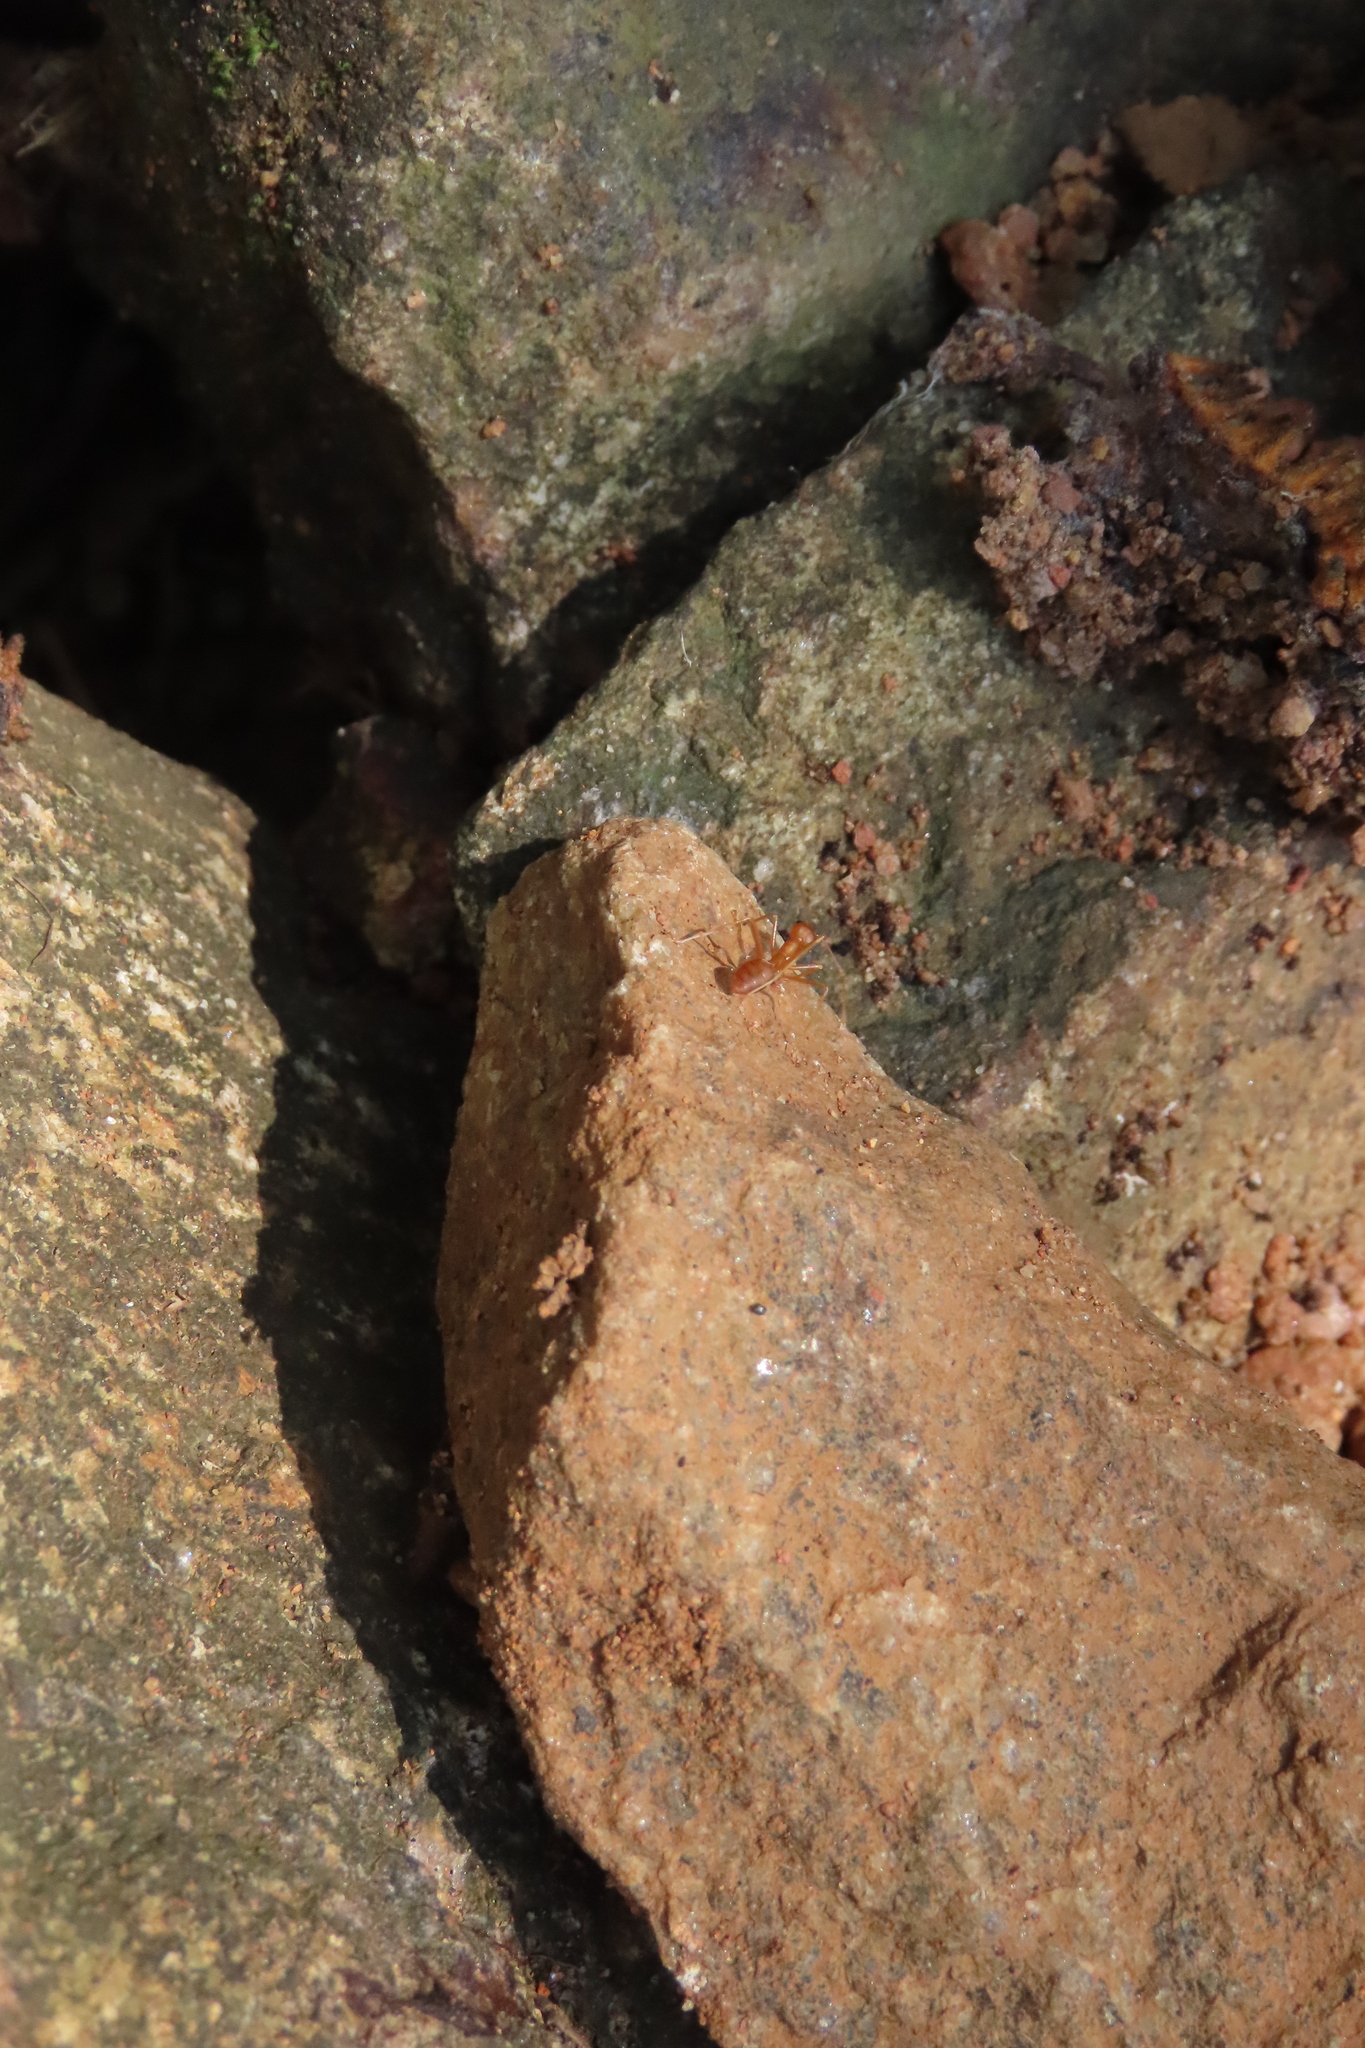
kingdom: Animalia
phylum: Arthropoda
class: Insecta
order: Hymenoptera
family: Formicidae
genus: Oecophylla
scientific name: Oecophylla smaragdina
